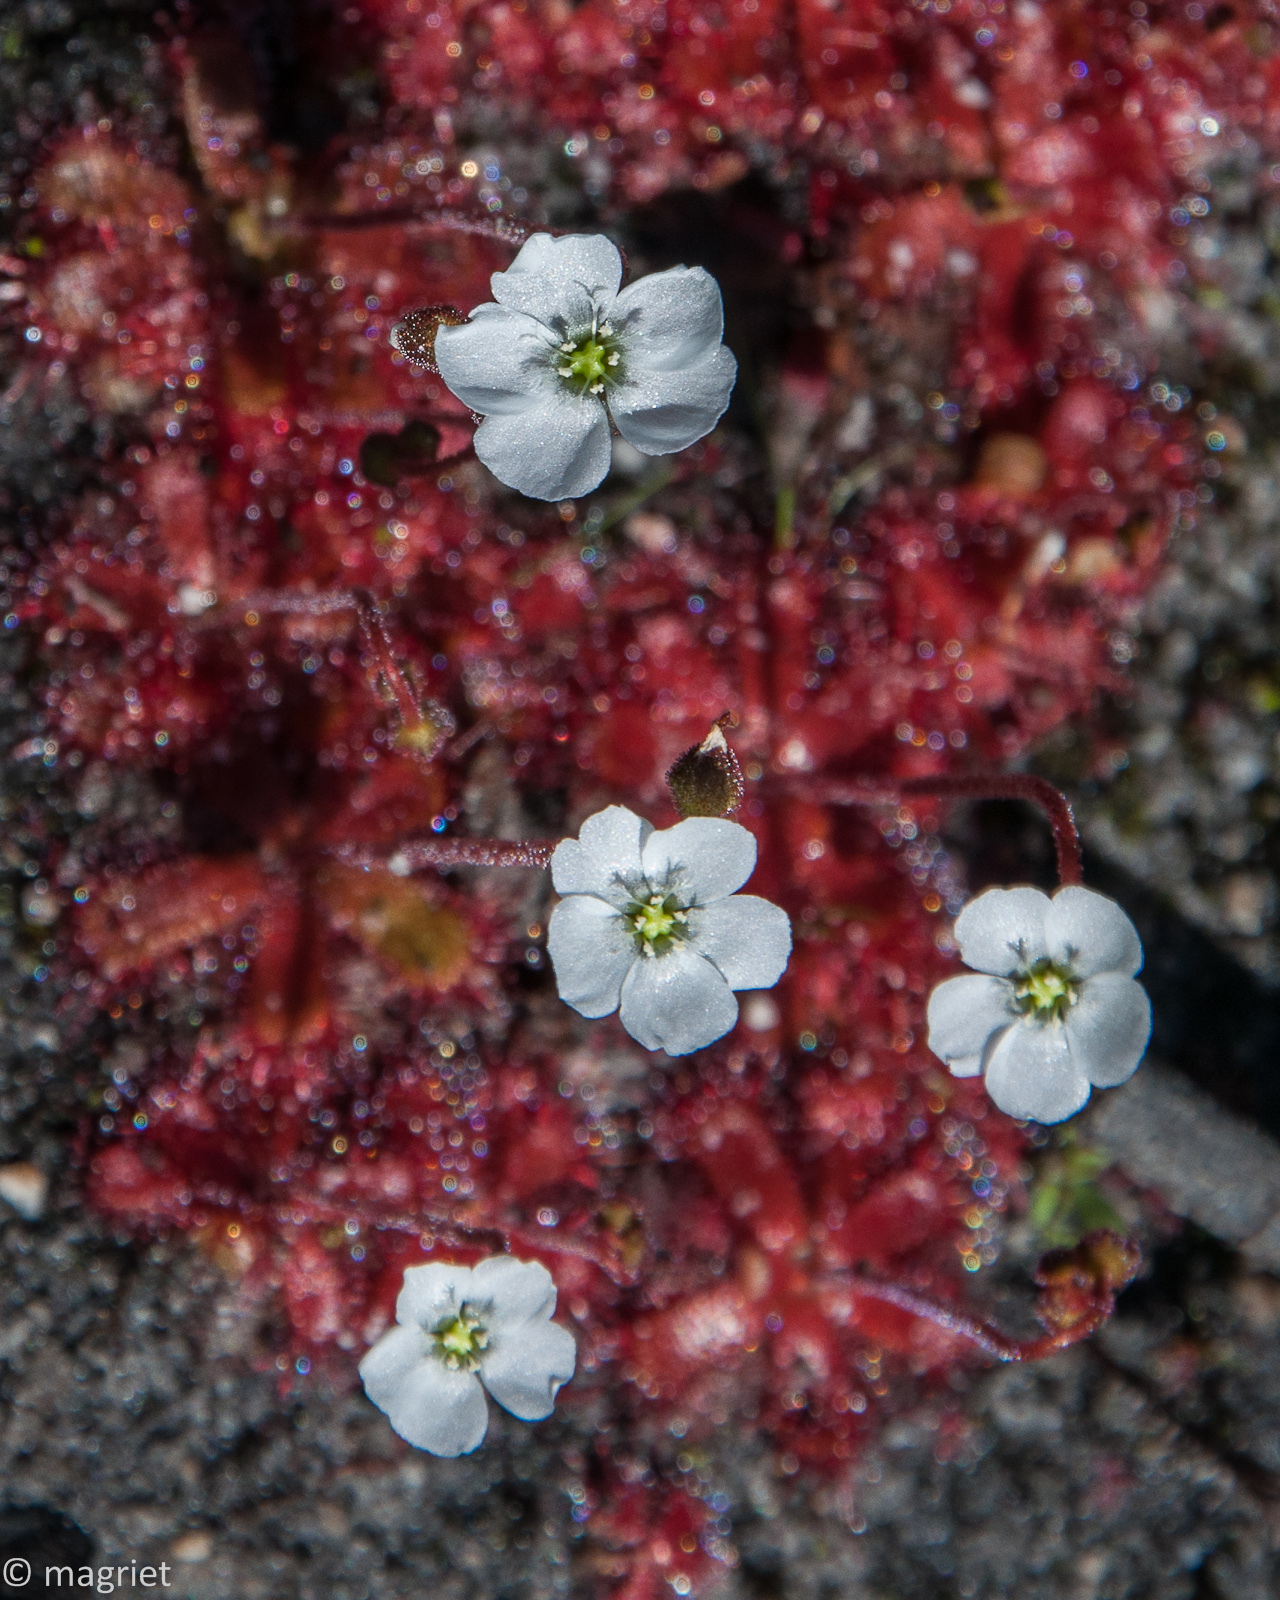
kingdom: Plantae
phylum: Tracheophyta
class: Magnoliopsida
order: Caryophyllales
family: Droseraceae
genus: Drosera
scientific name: Drosera trinervia
